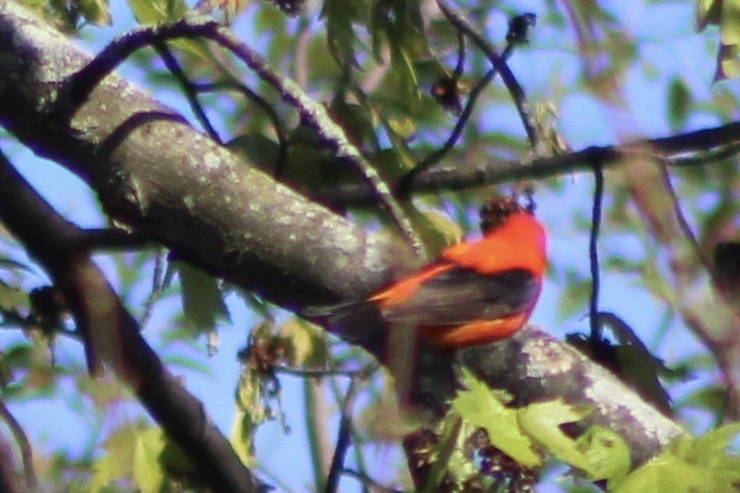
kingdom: Animalia
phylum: Chordata
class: Aves
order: Passeriformes
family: Cardinalidae
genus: Piranga
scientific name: Piranga olivacea
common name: Scarlet tanager
